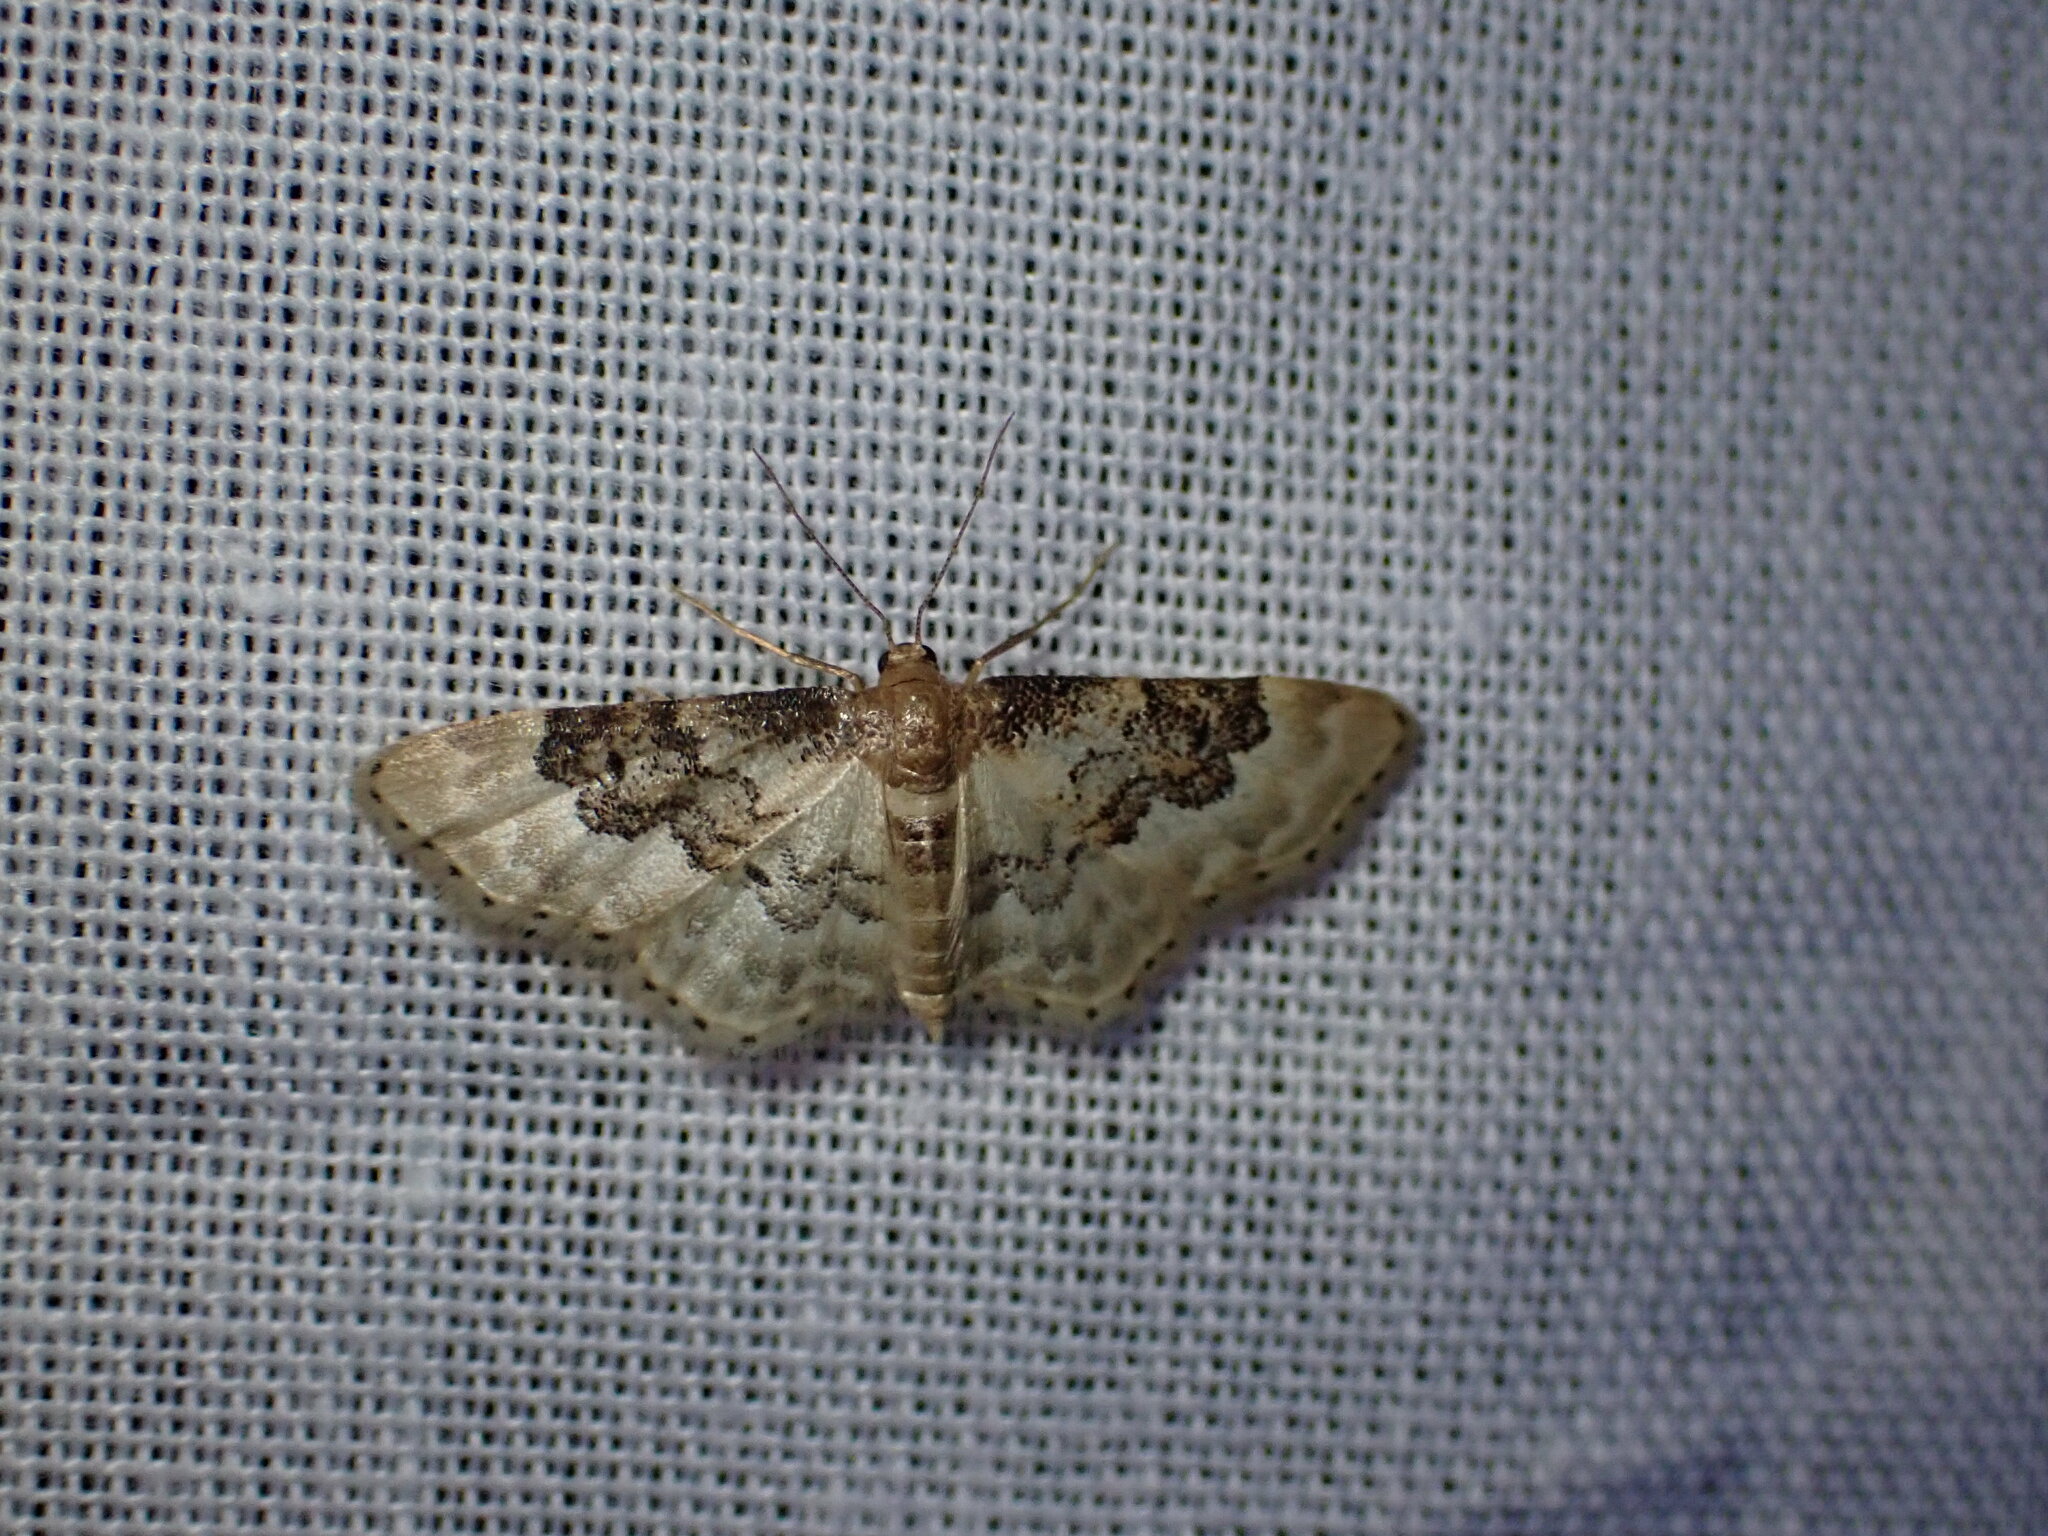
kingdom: Animalia
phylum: Arthropoda
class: Insecta
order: Lepidoptera
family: Geometridae
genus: Idaea
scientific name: Idaea rusticata
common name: Least carpet
